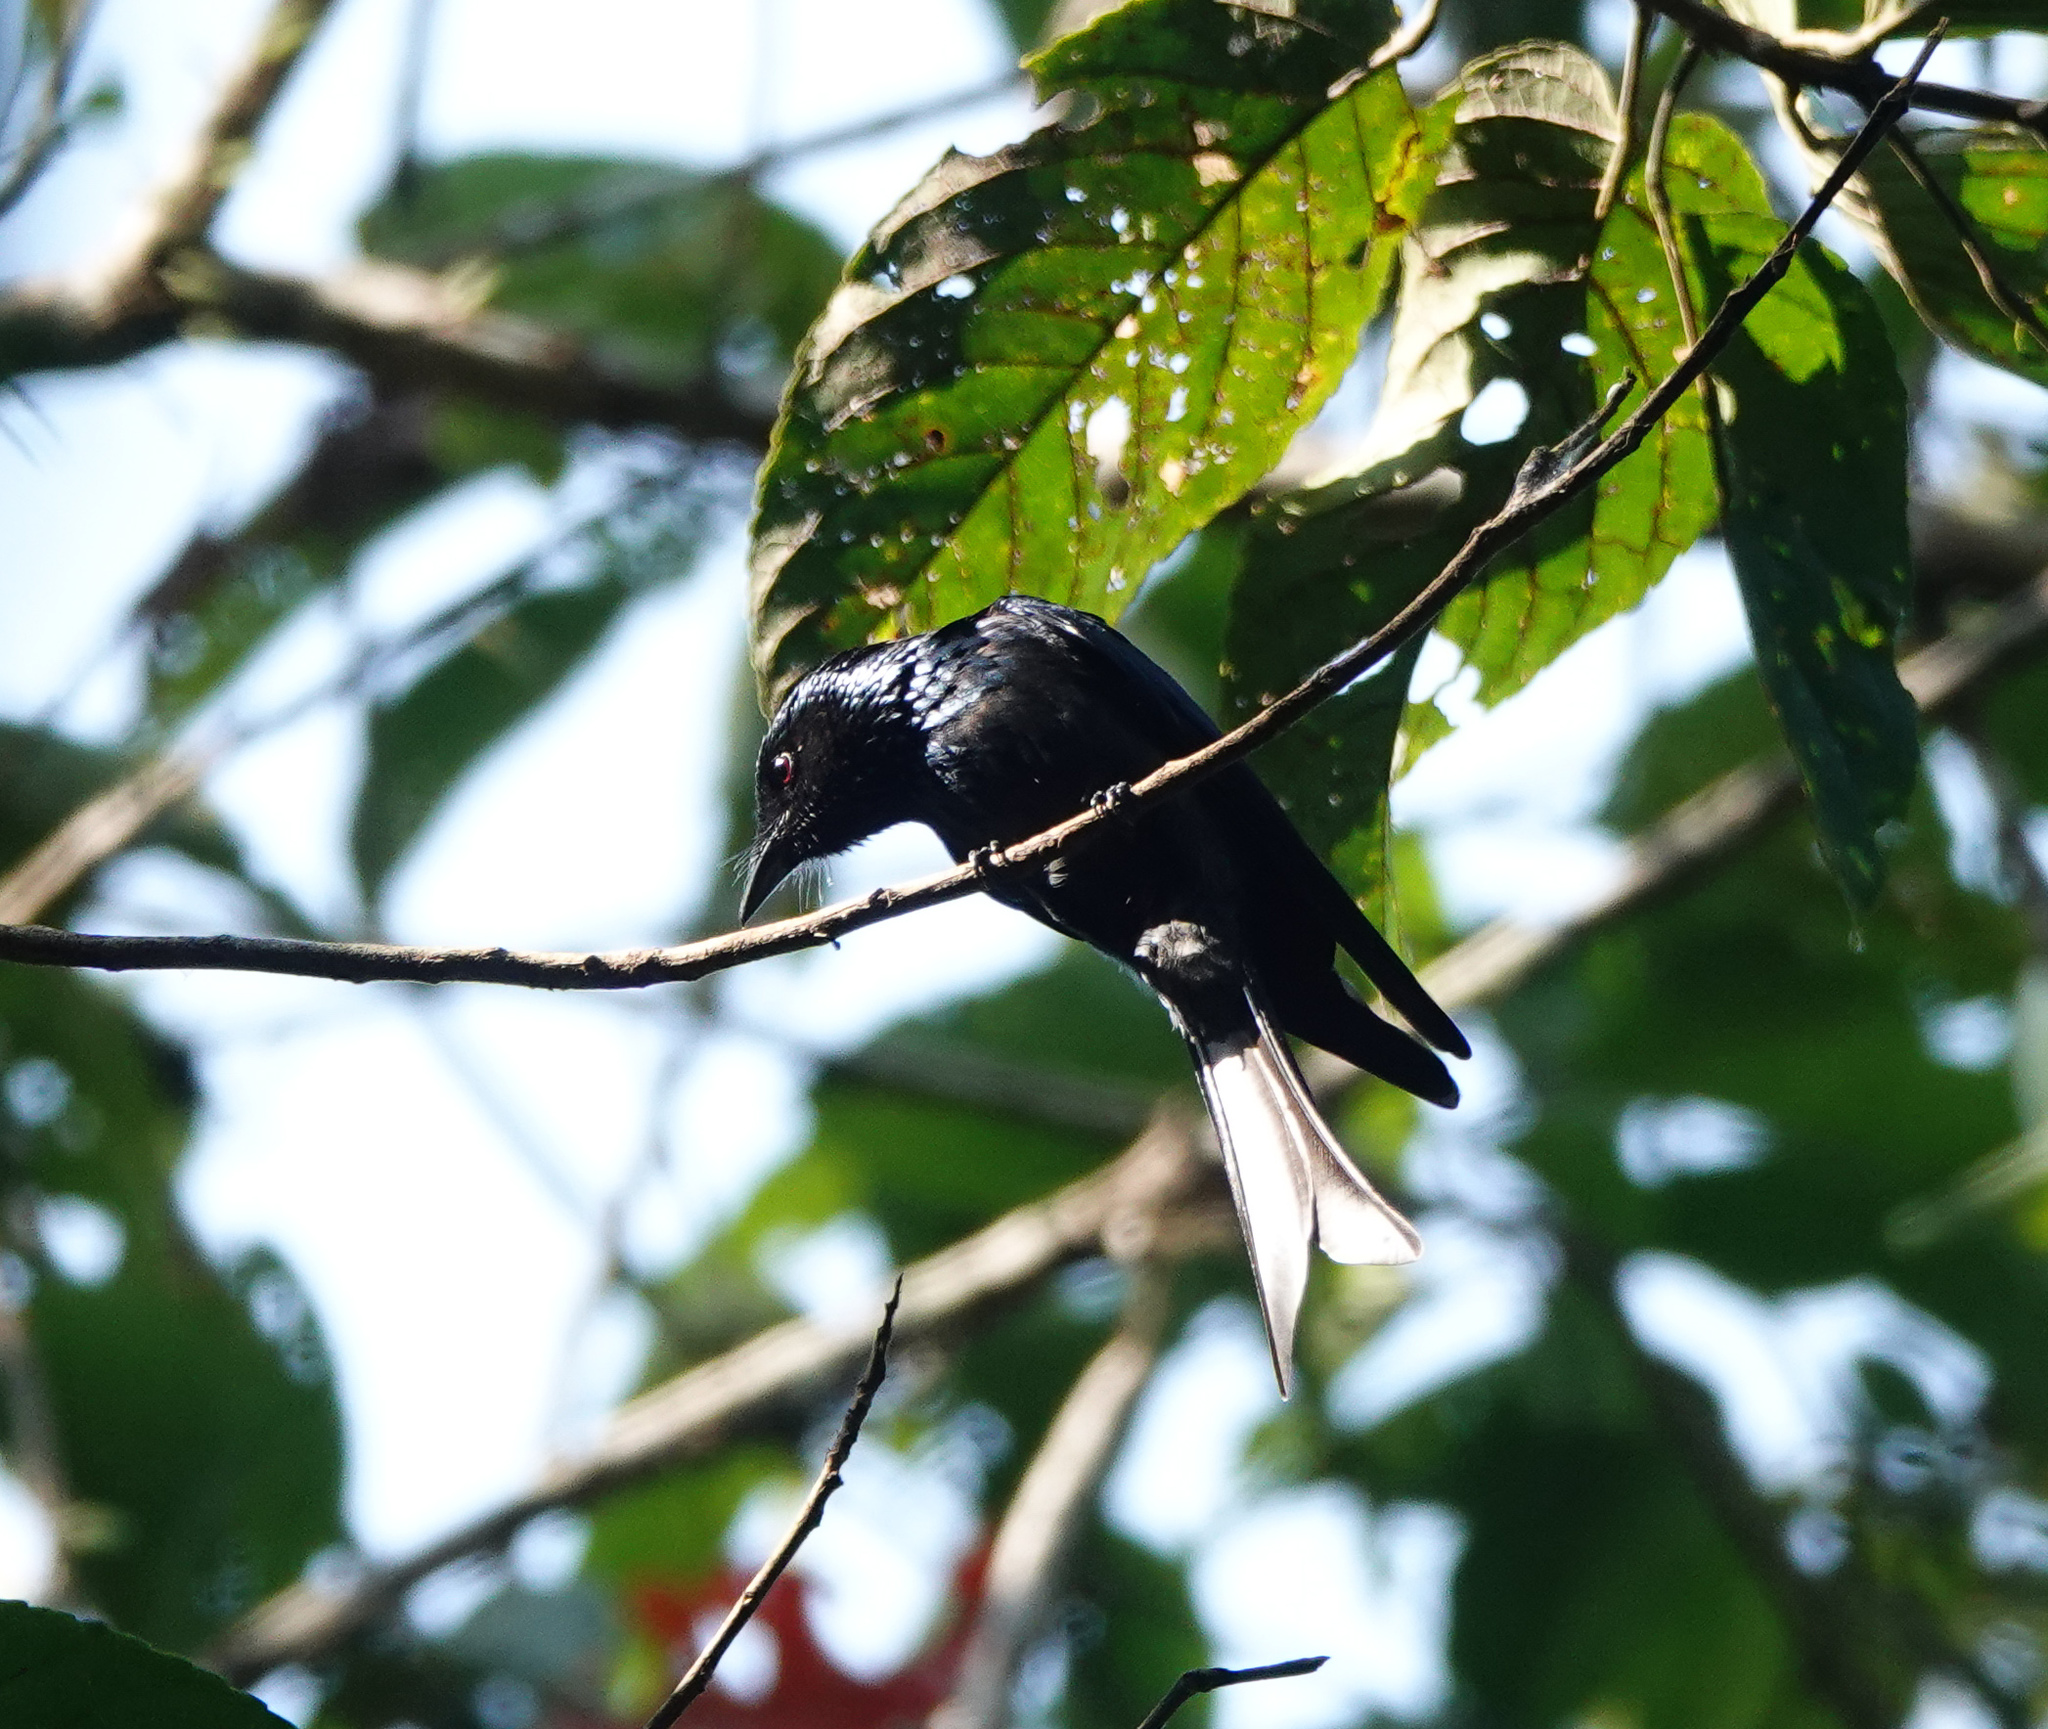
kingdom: Animalia
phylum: Chordata
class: Aves
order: Passeriformes
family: Dicruridae
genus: Dicrurus
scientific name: Dicrurus aeneus
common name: Bronzed drongo
